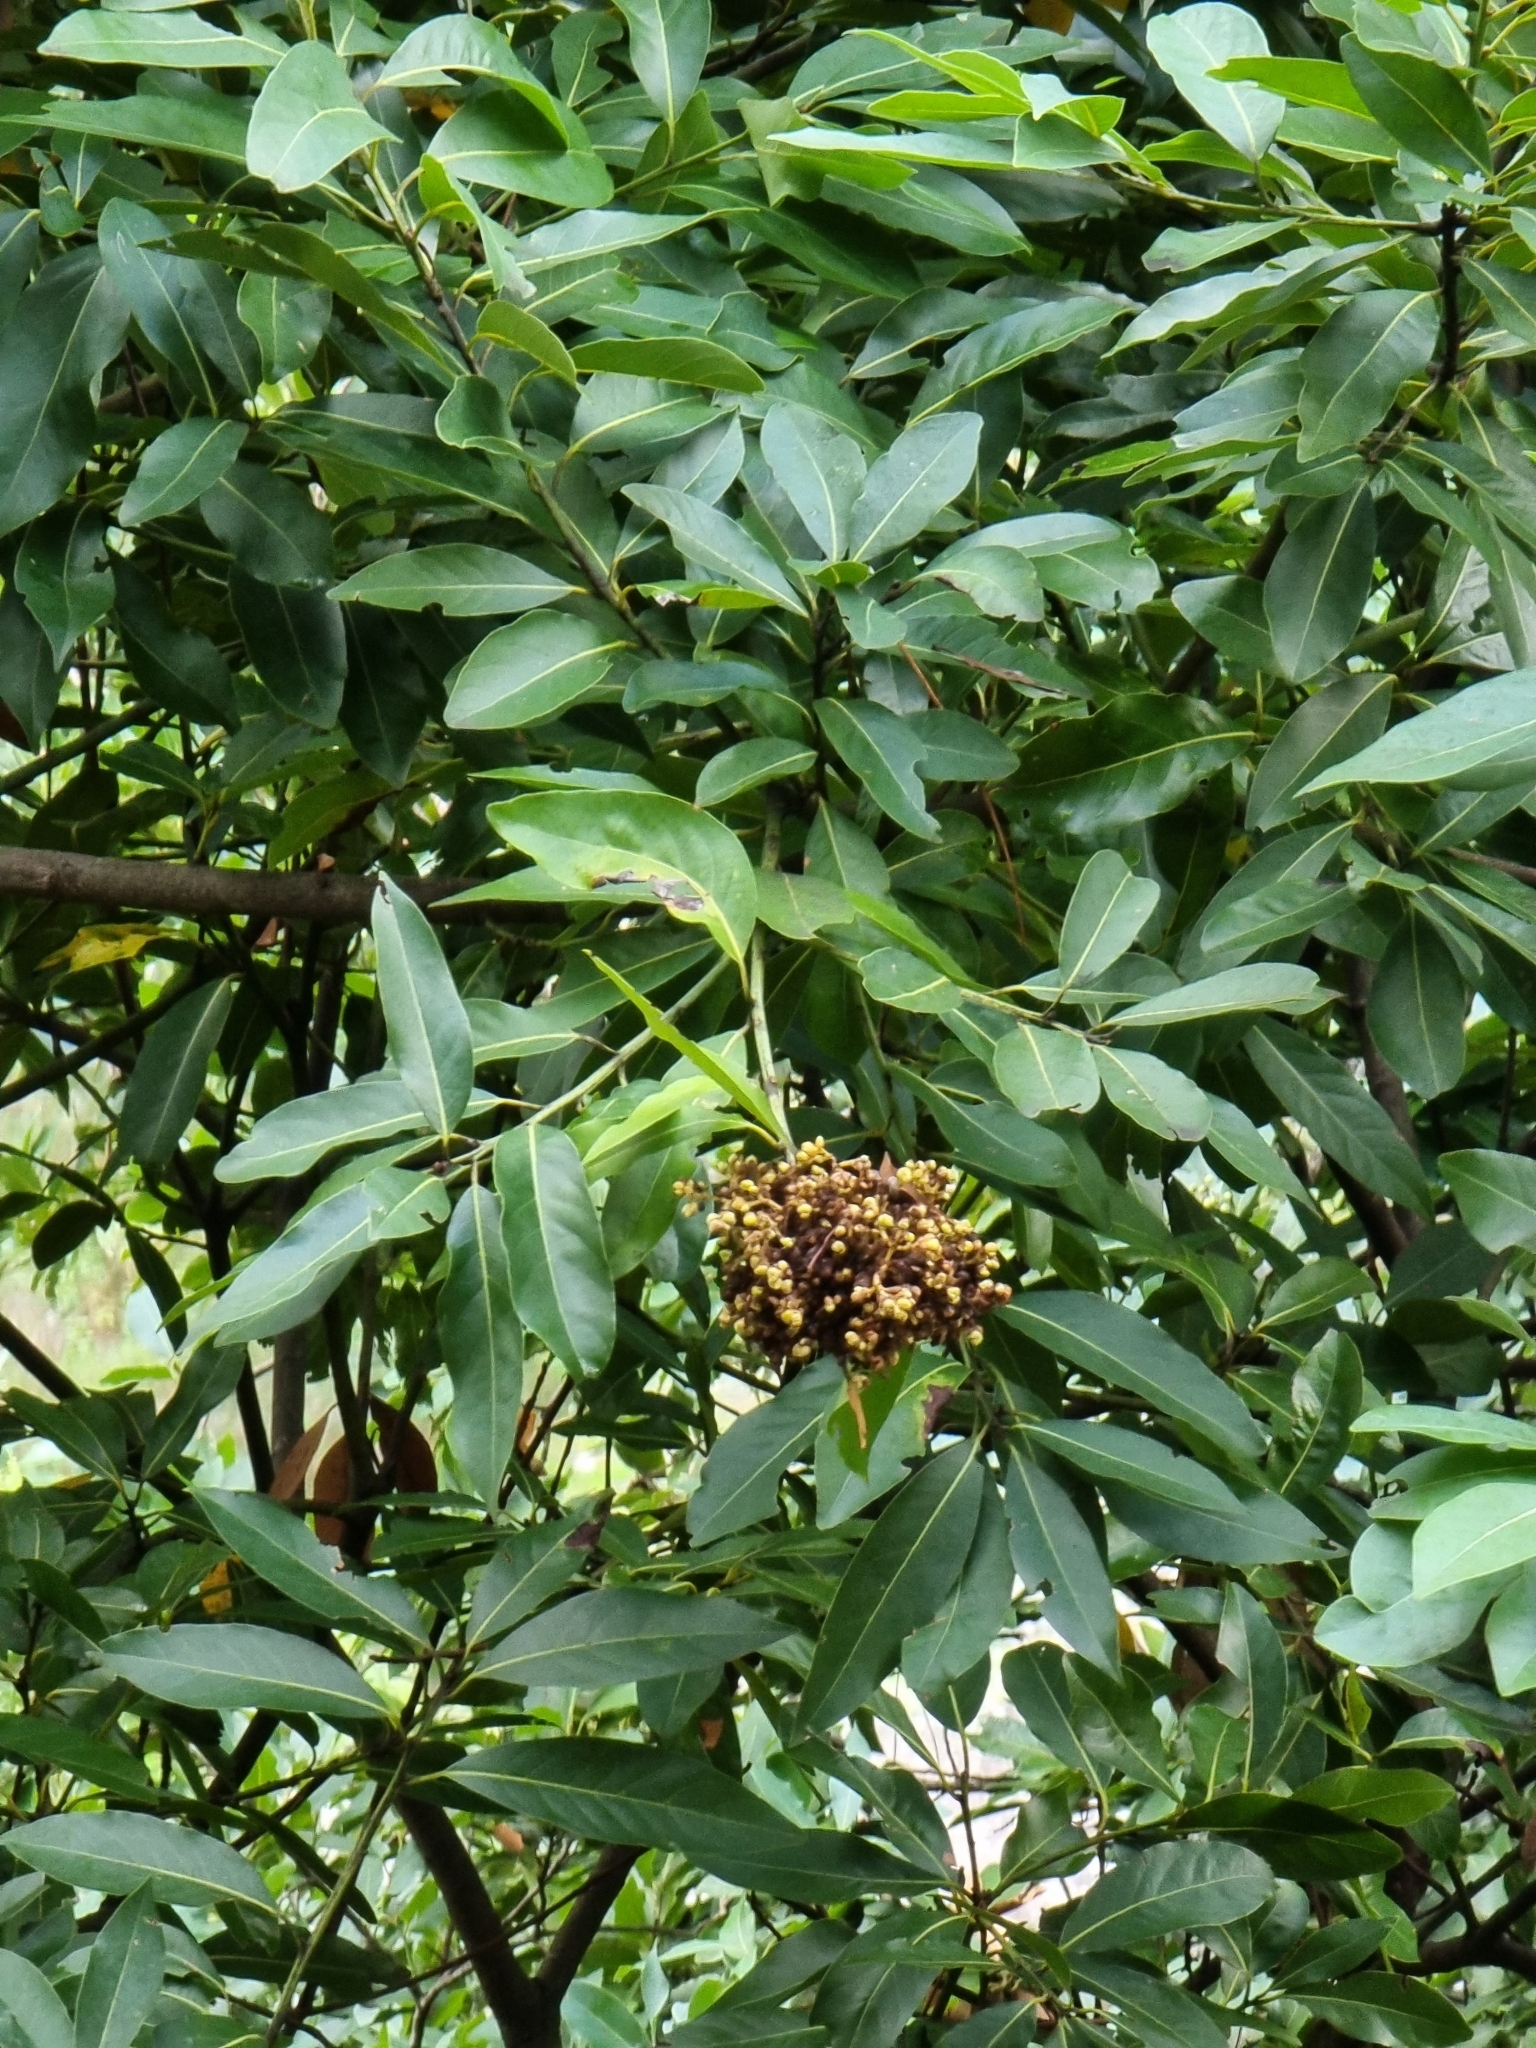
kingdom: Plantae
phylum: Tracheophyta
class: Magnoliopsida
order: Laurales
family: Lauraceae
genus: Laurus
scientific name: Laurus novocanariensis
